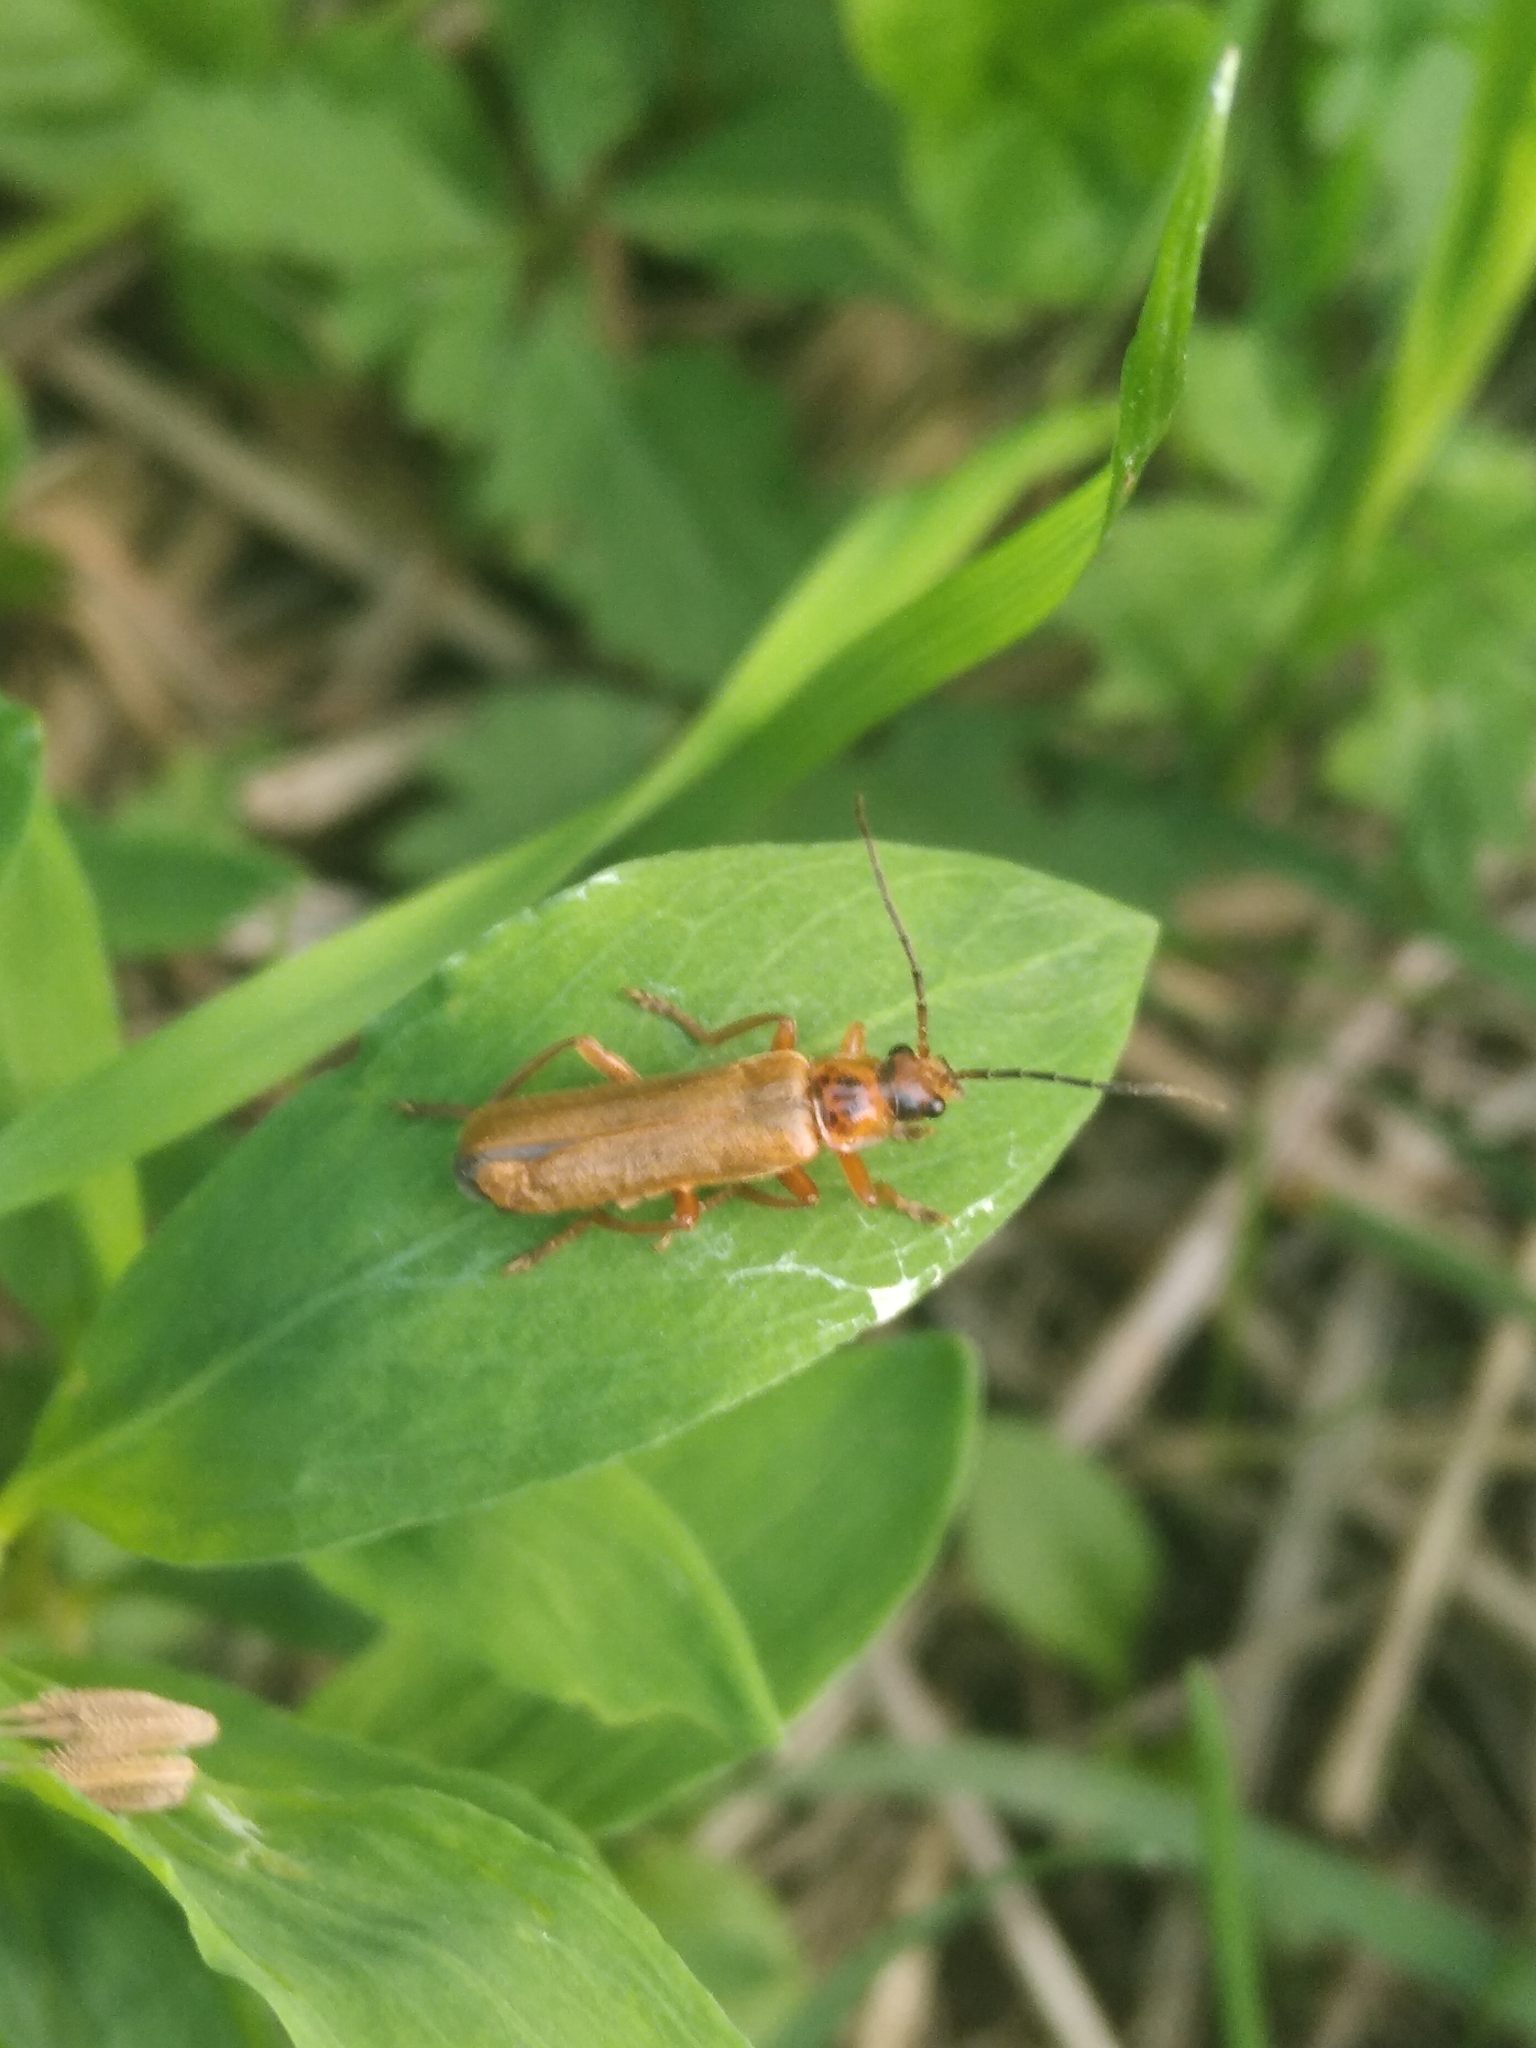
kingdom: Animalia
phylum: Arthropoda
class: Insecta
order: Coleoptera
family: Cantharidae
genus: Cantharis
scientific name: Cantharis rufa
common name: Red-spotted soldier beetle
